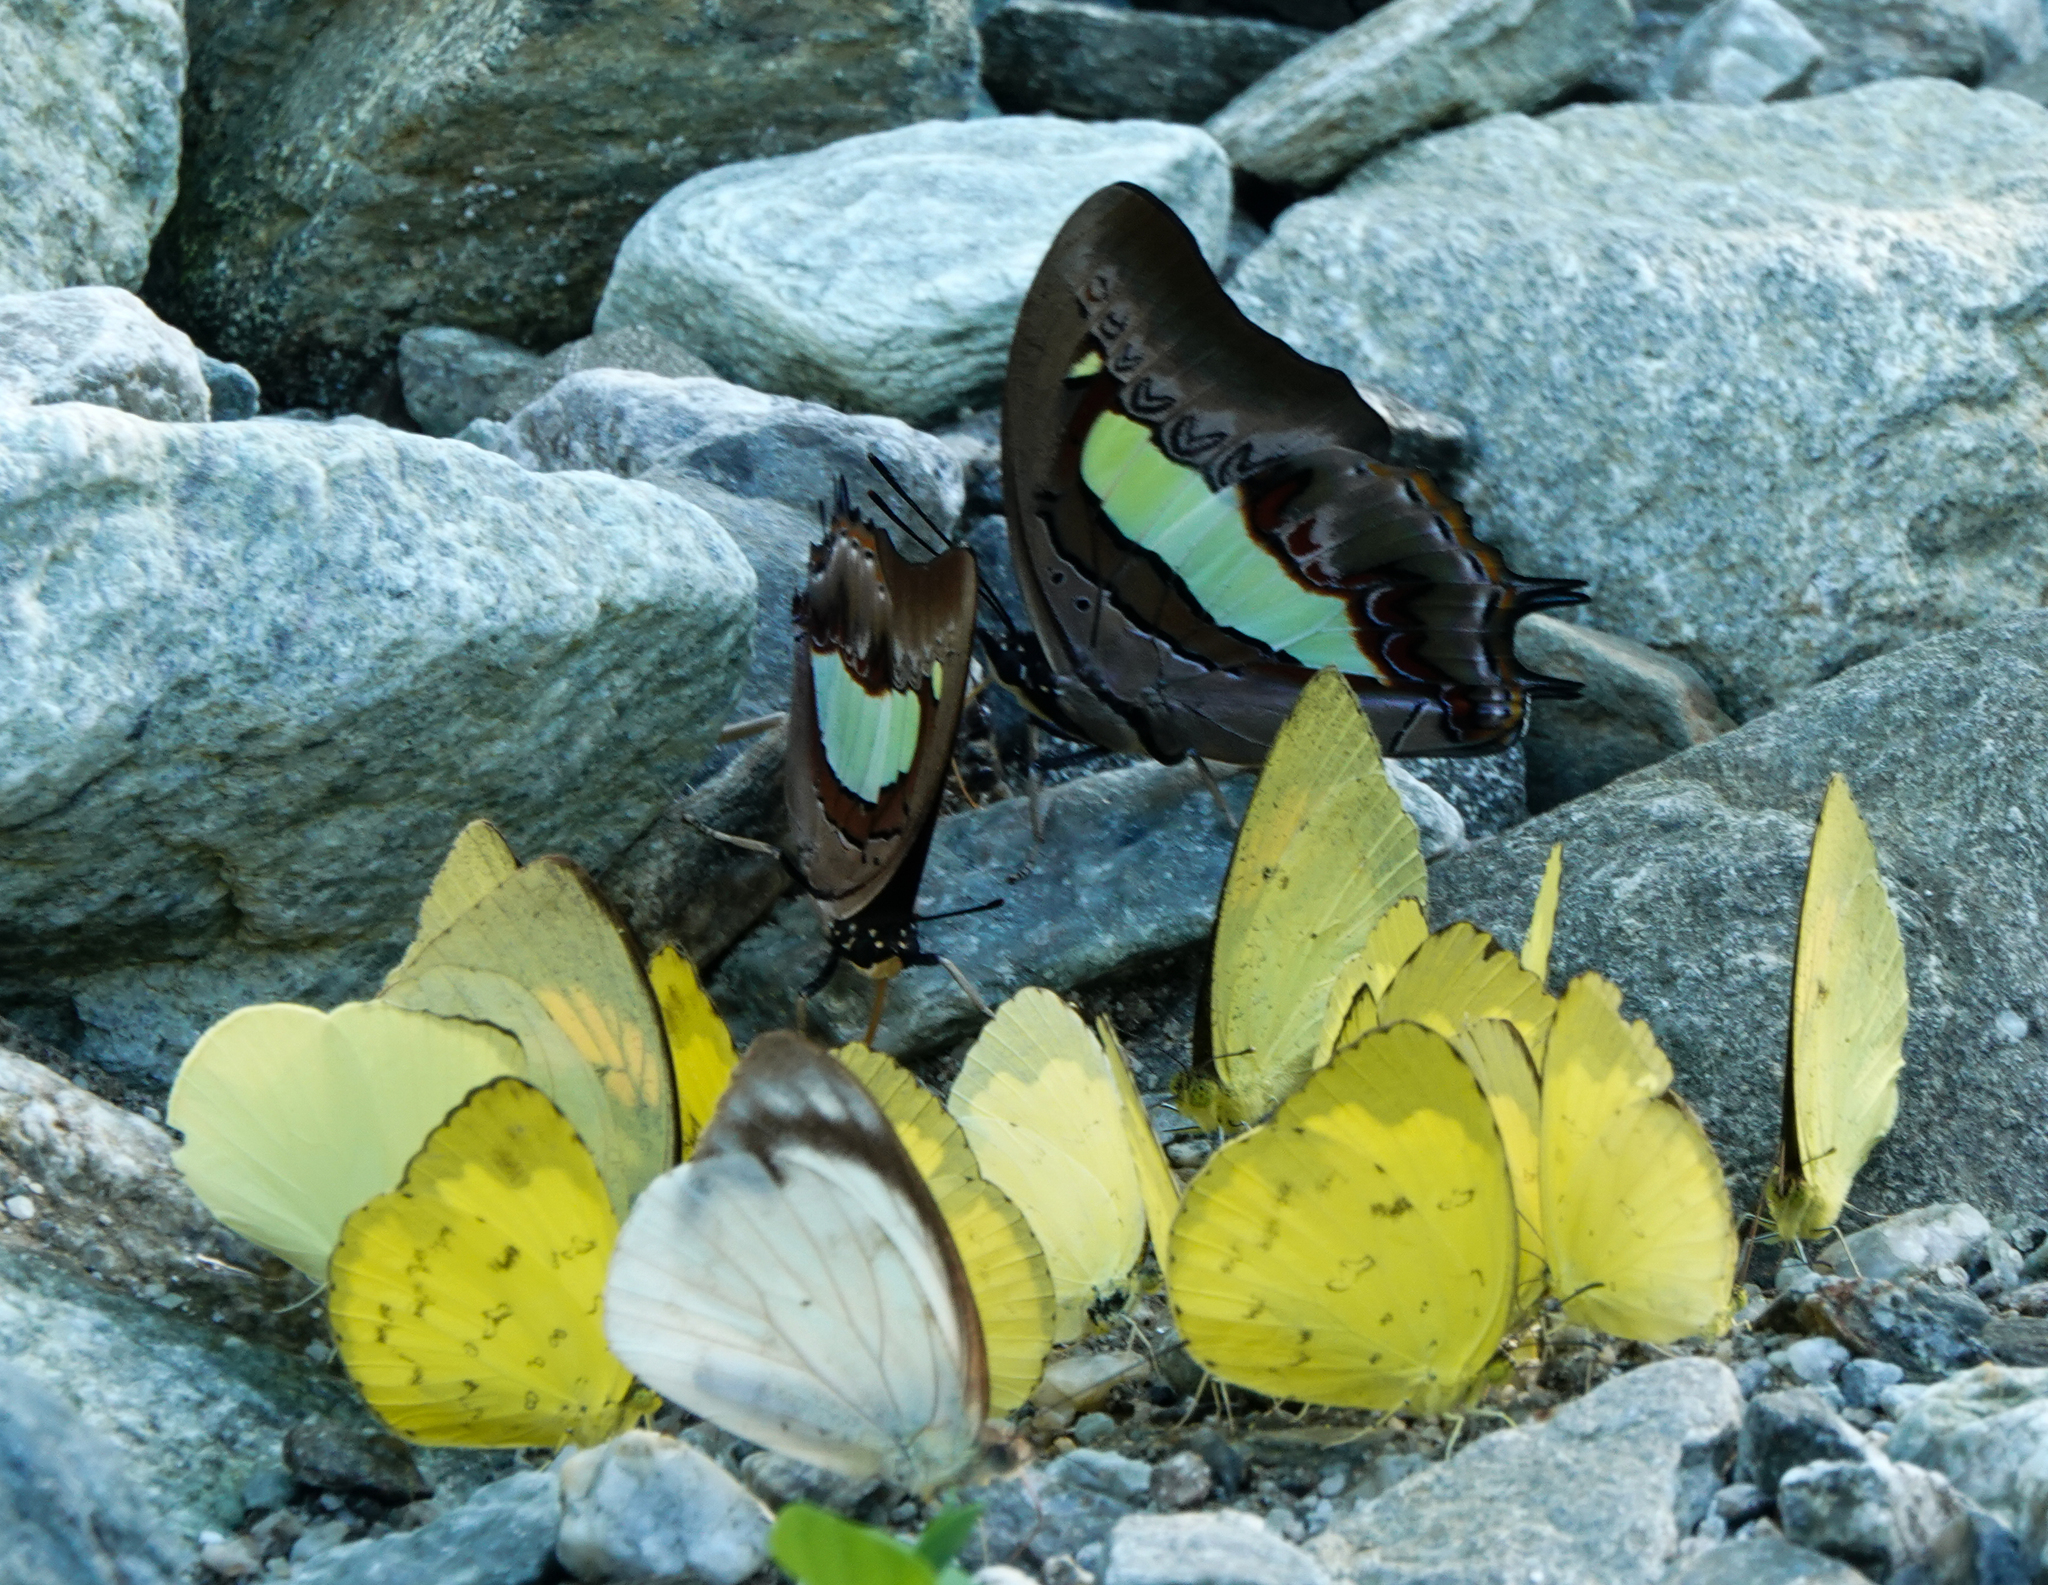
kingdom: Animalia
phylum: Arthropoda
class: Insecta
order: Lepidoptera
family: Pieridae
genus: Gandaca
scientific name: Gandaca harina
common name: Tree yellow
